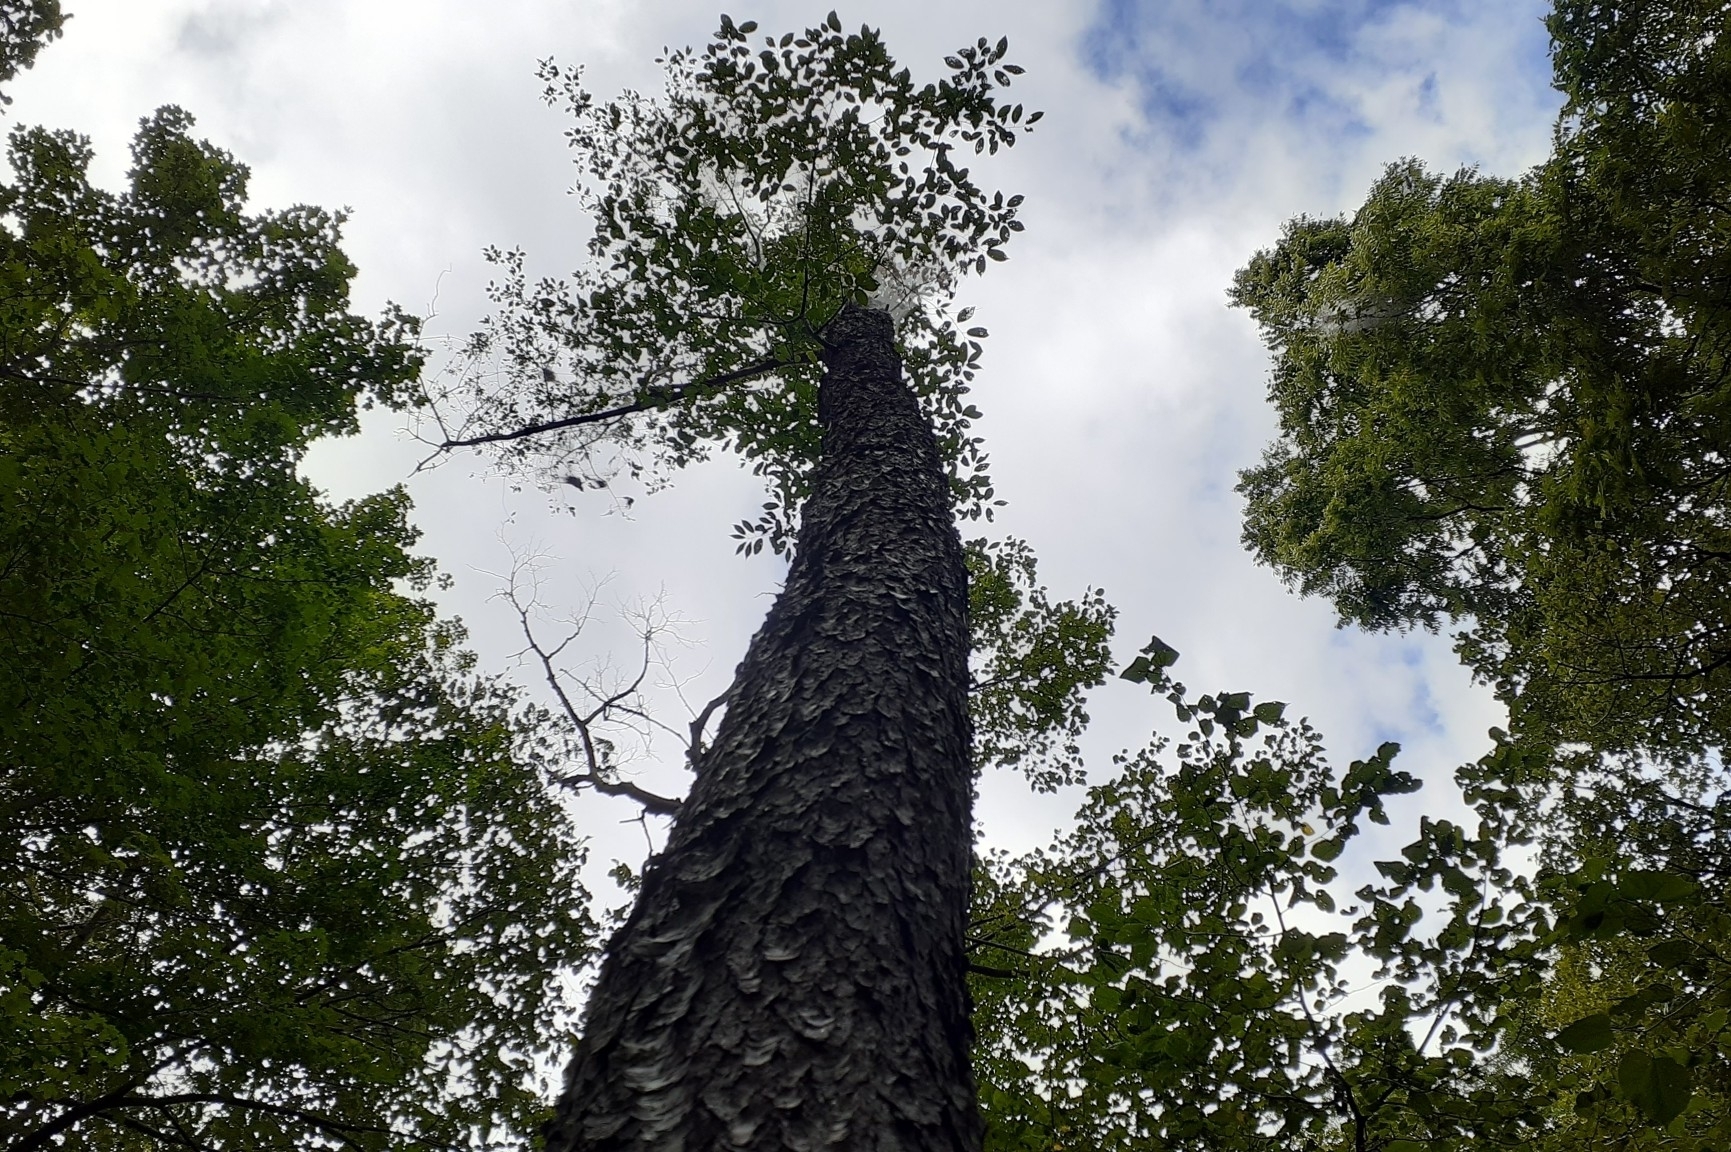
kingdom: Plantae
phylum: Tracheophyta
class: Magnoliopsida
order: Rosales
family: Rosaceae
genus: Prunus
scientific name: Prunus serotina
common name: Black cherry
